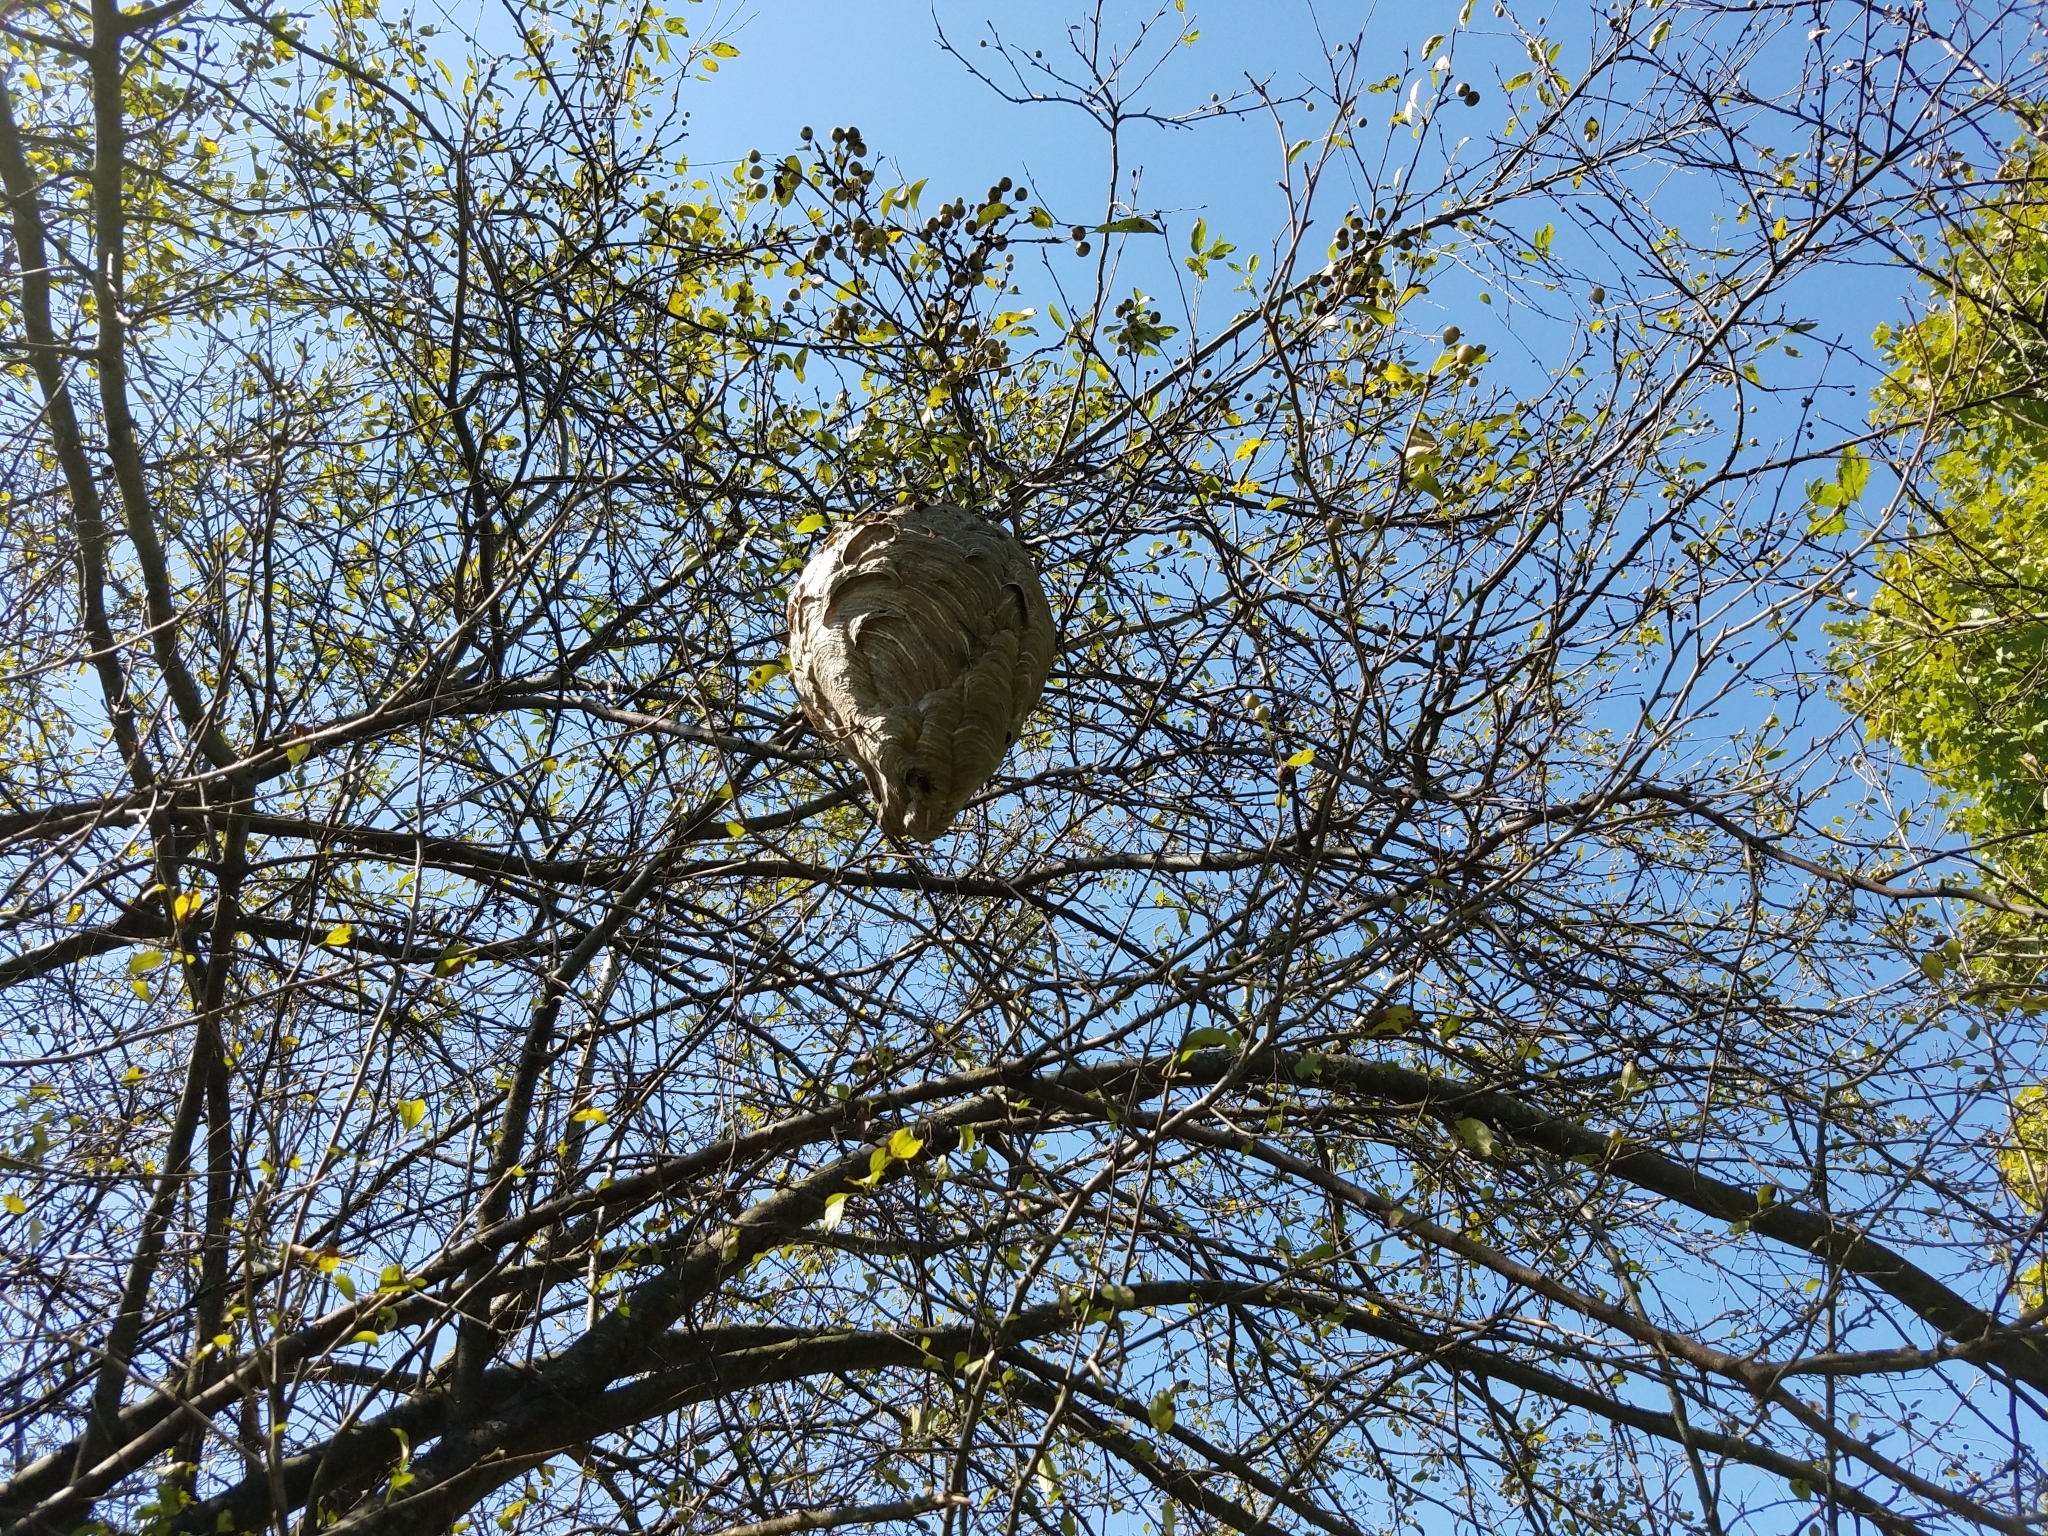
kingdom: Animalia
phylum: Arthropoda
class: Insecta
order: Hymenoptera
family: Vespidae
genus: Dolichovespula
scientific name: Dolichovespula maculata
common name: Bald-faced hornet
